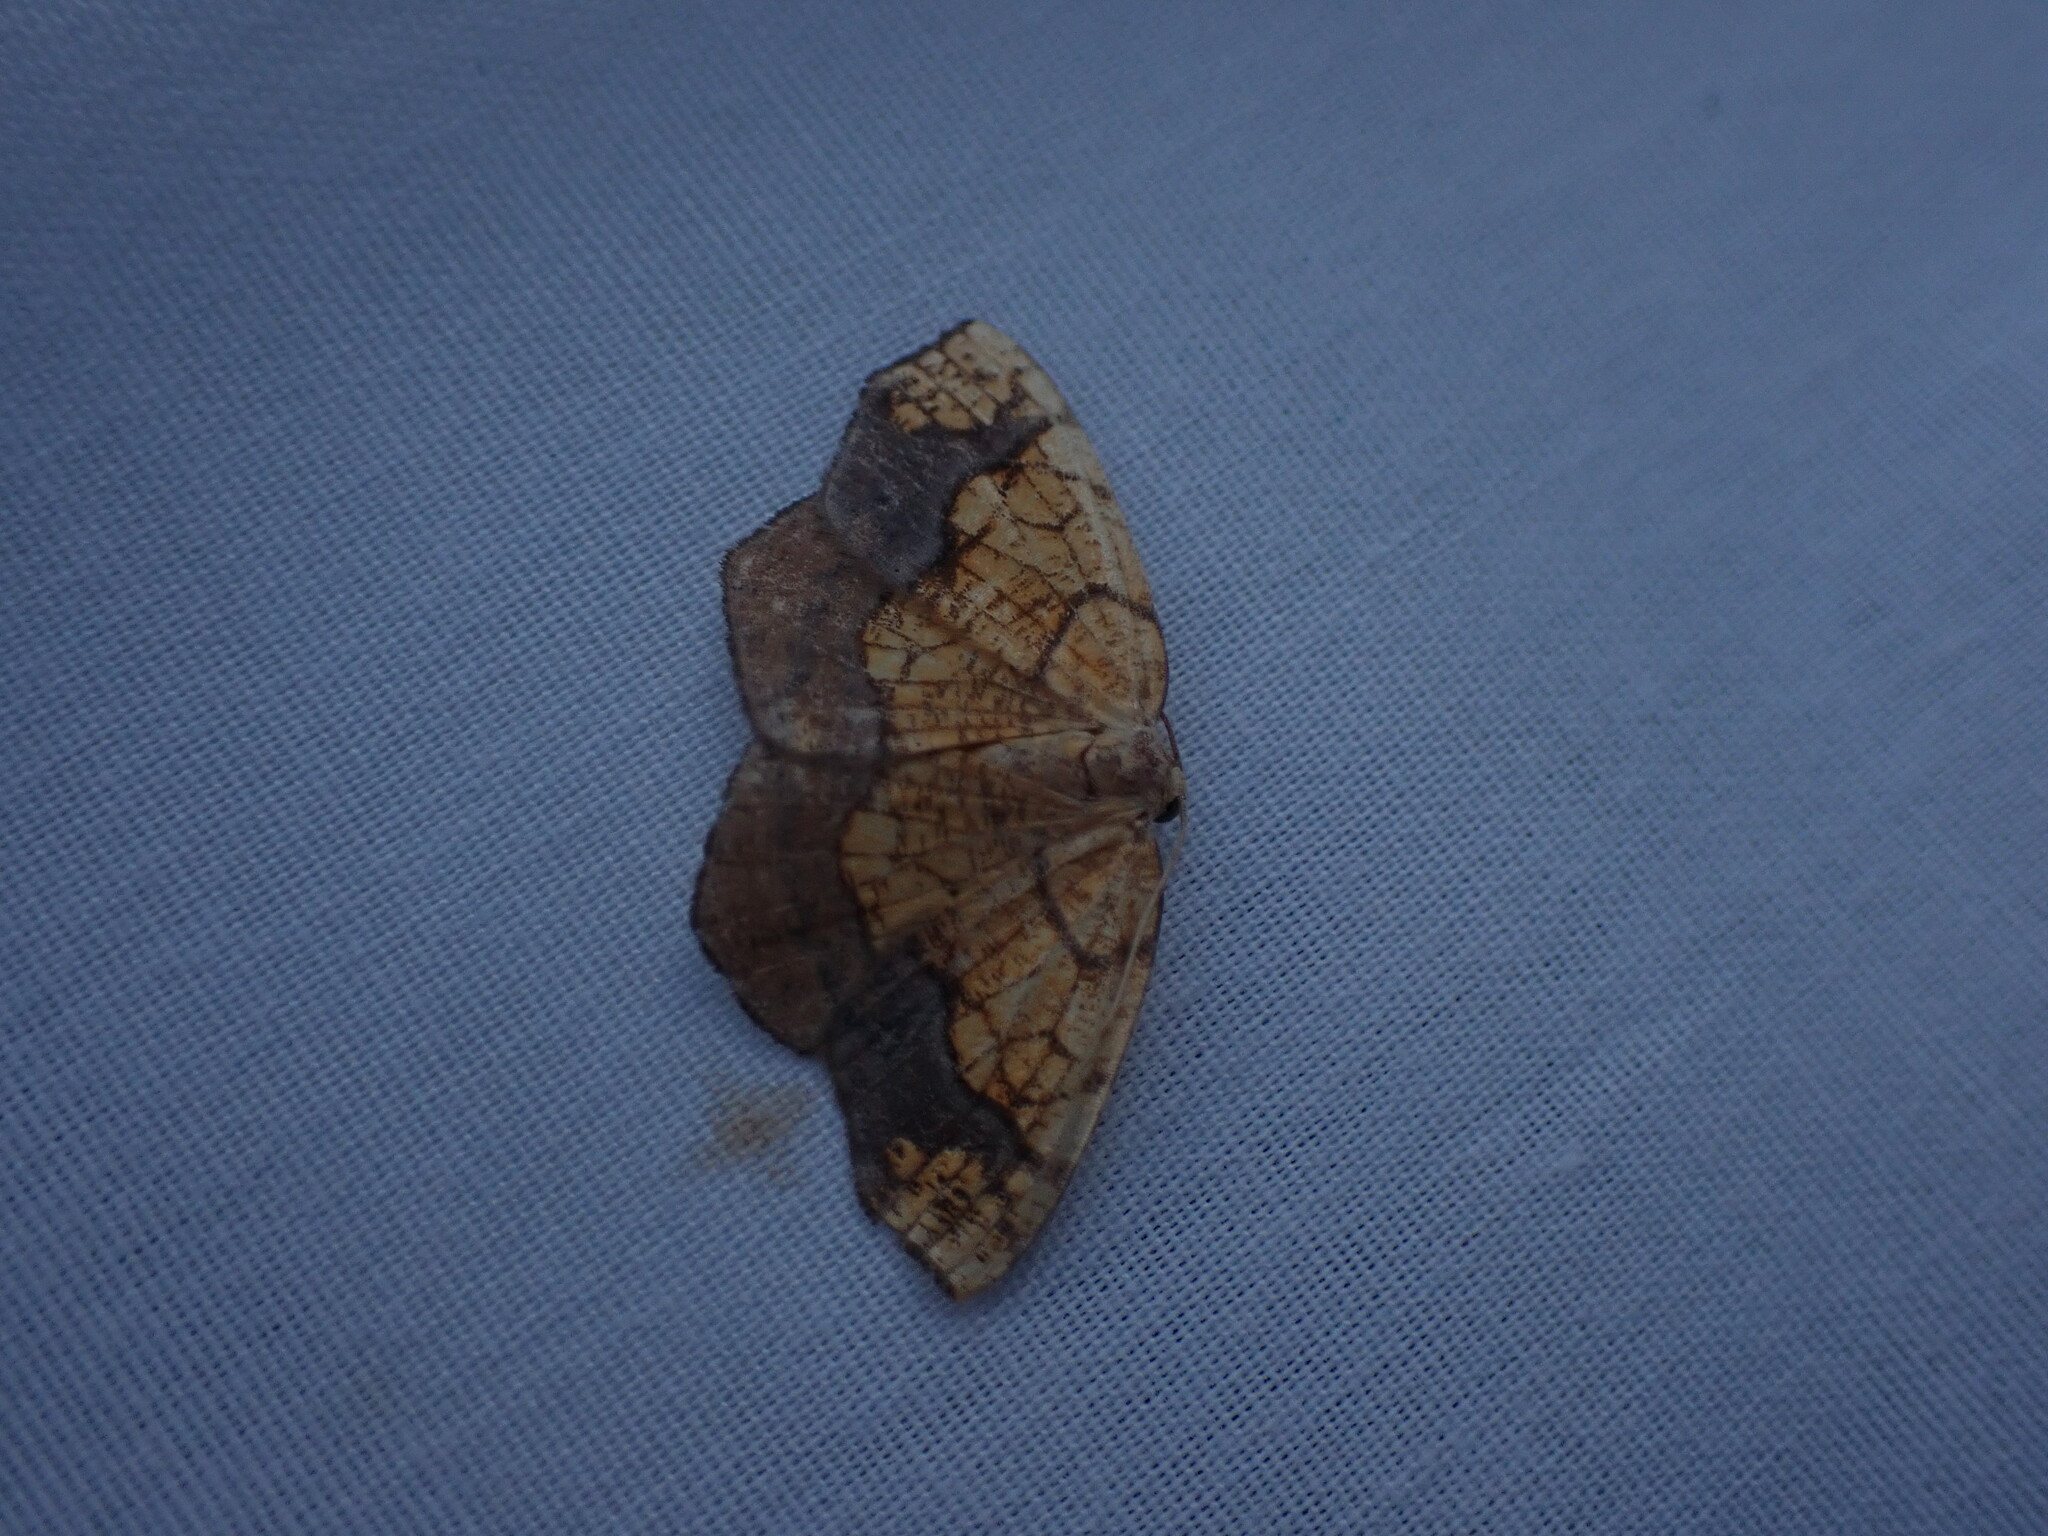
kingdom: Animalia
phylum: Arthropoda
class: Insecta
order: Lepidoptera
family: Geometridae
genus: Nematocampa
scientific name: Nematocampa resistaria
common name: Horned spanworm moth
